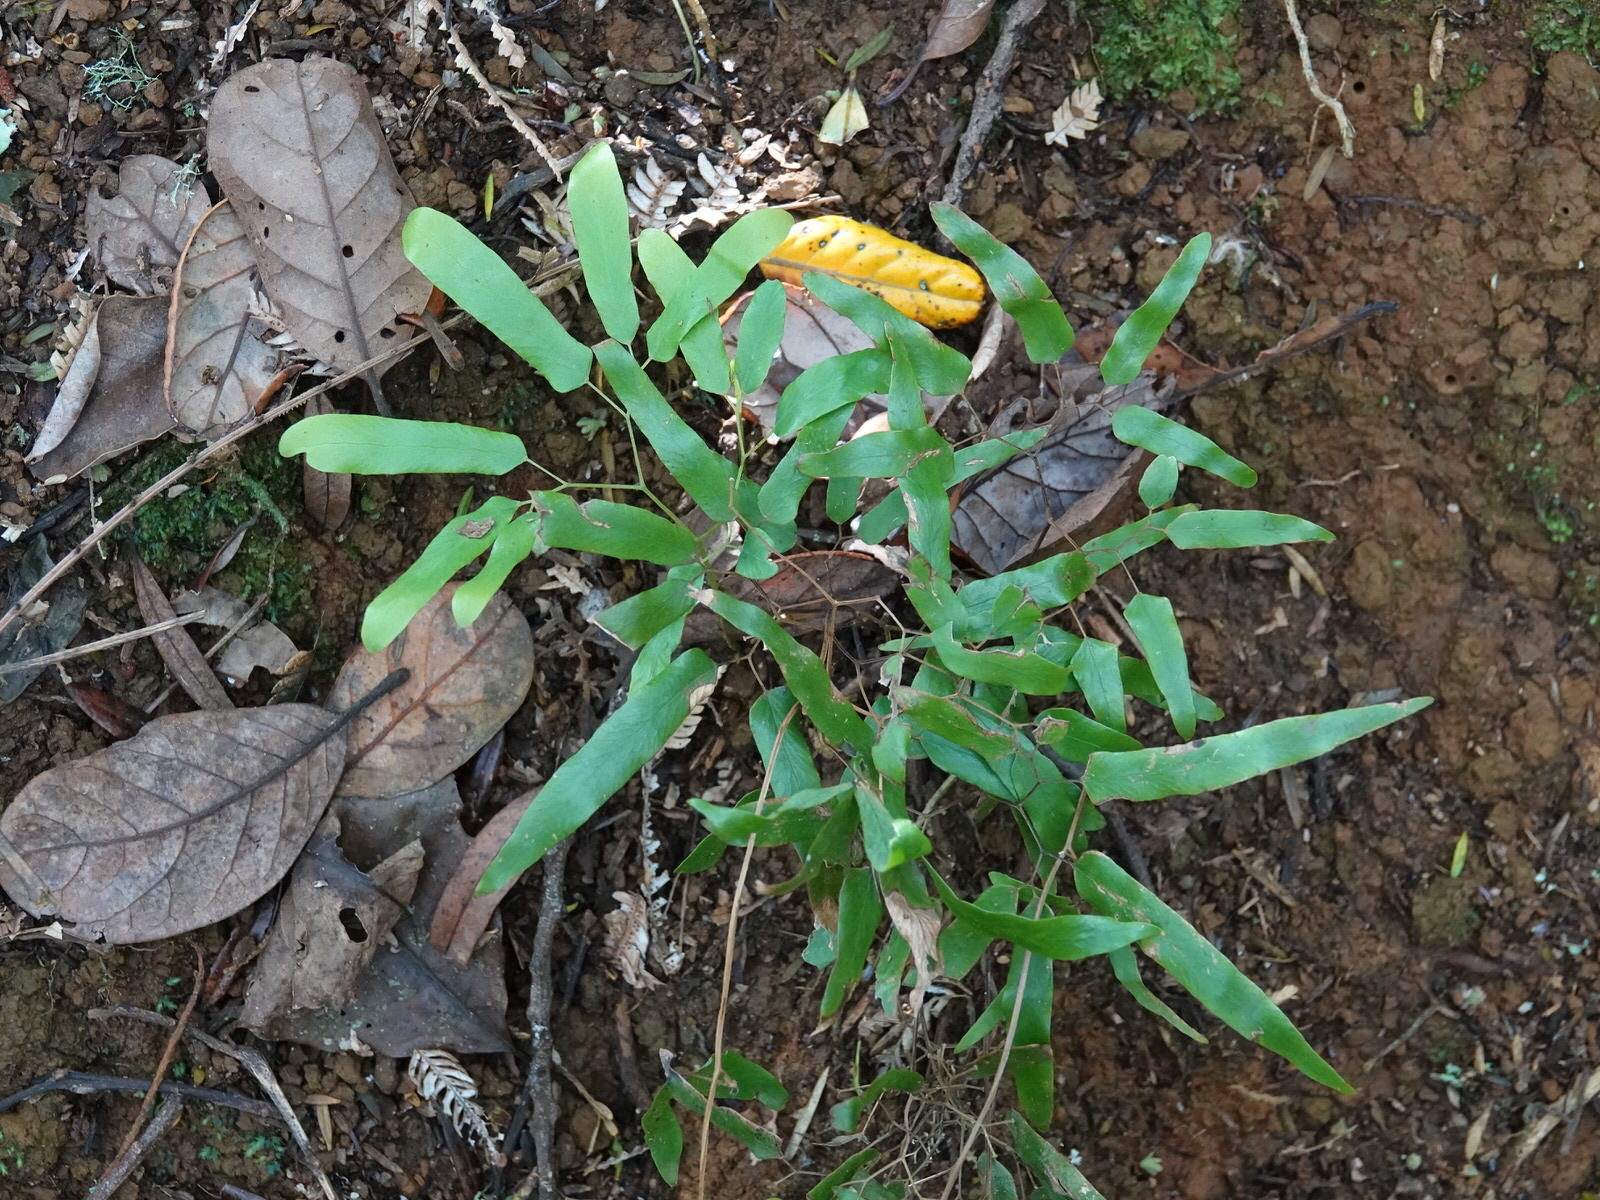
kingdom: Plantae
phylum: Tracheophyta
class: Polypodiopsida
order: Schizaeales
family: Lygodiaceae
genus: Lygodium
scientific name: Lygodium articulatum
